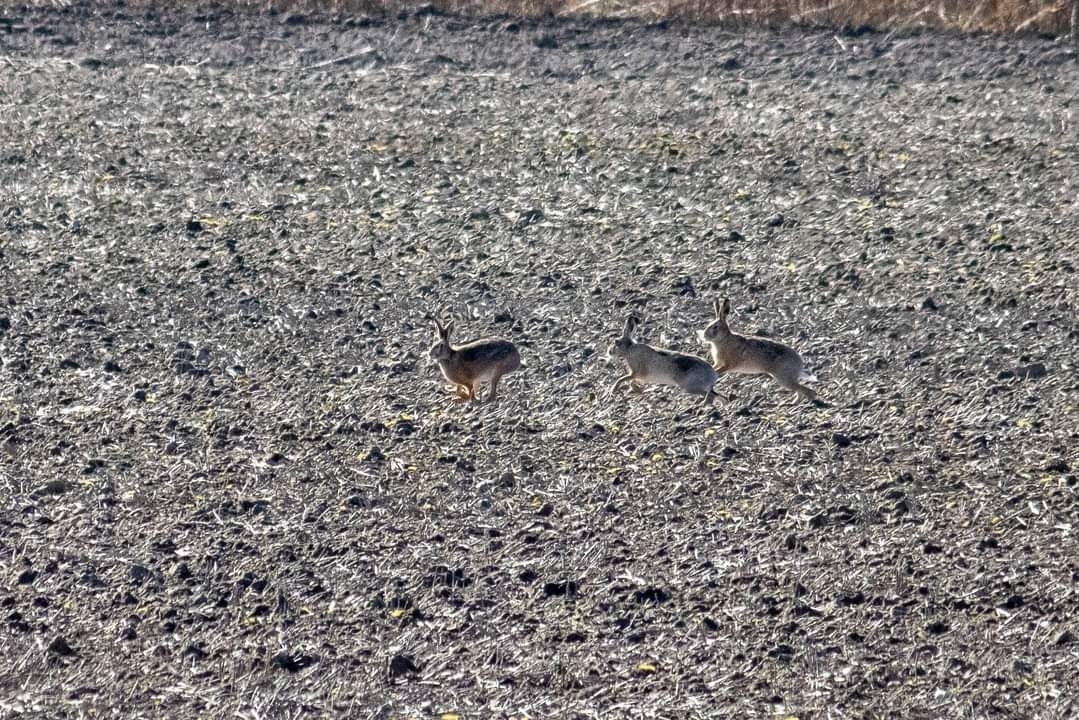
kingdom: Animalia
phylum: Chordata
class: Mammalia
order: Lagomorpha
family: Leporidae
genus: Lepus
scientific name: Lepus europaeus
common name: European hare
